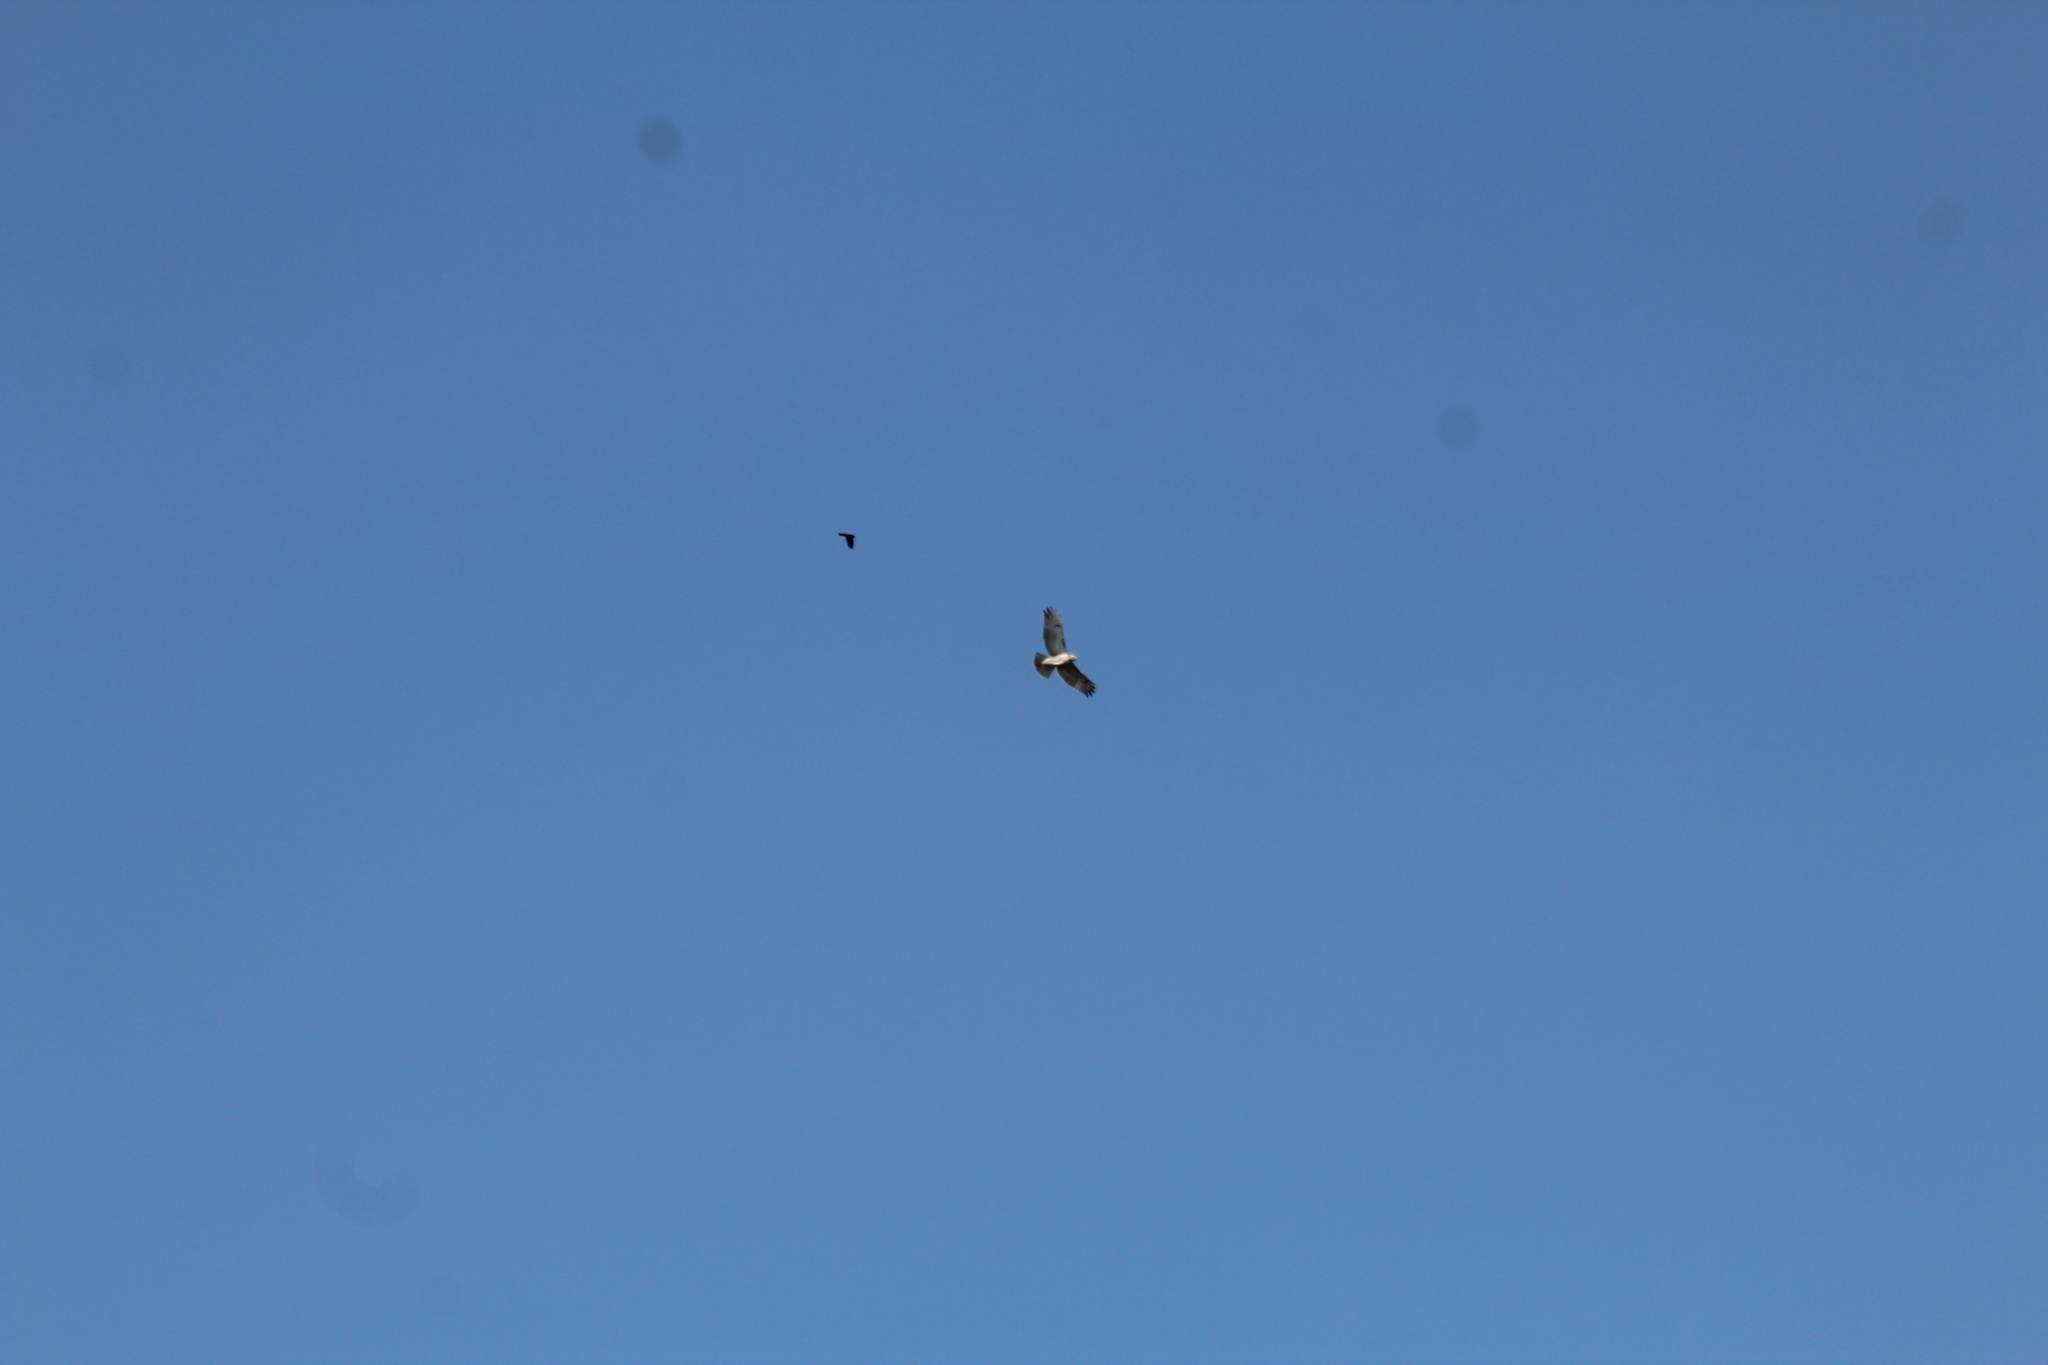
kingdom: Animalia
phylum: Chordata
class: Aves
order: Accipitriformes
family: Accipitridae
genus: Buteo
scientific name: Buteo jamaicensis
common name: Red-tailed hawk
